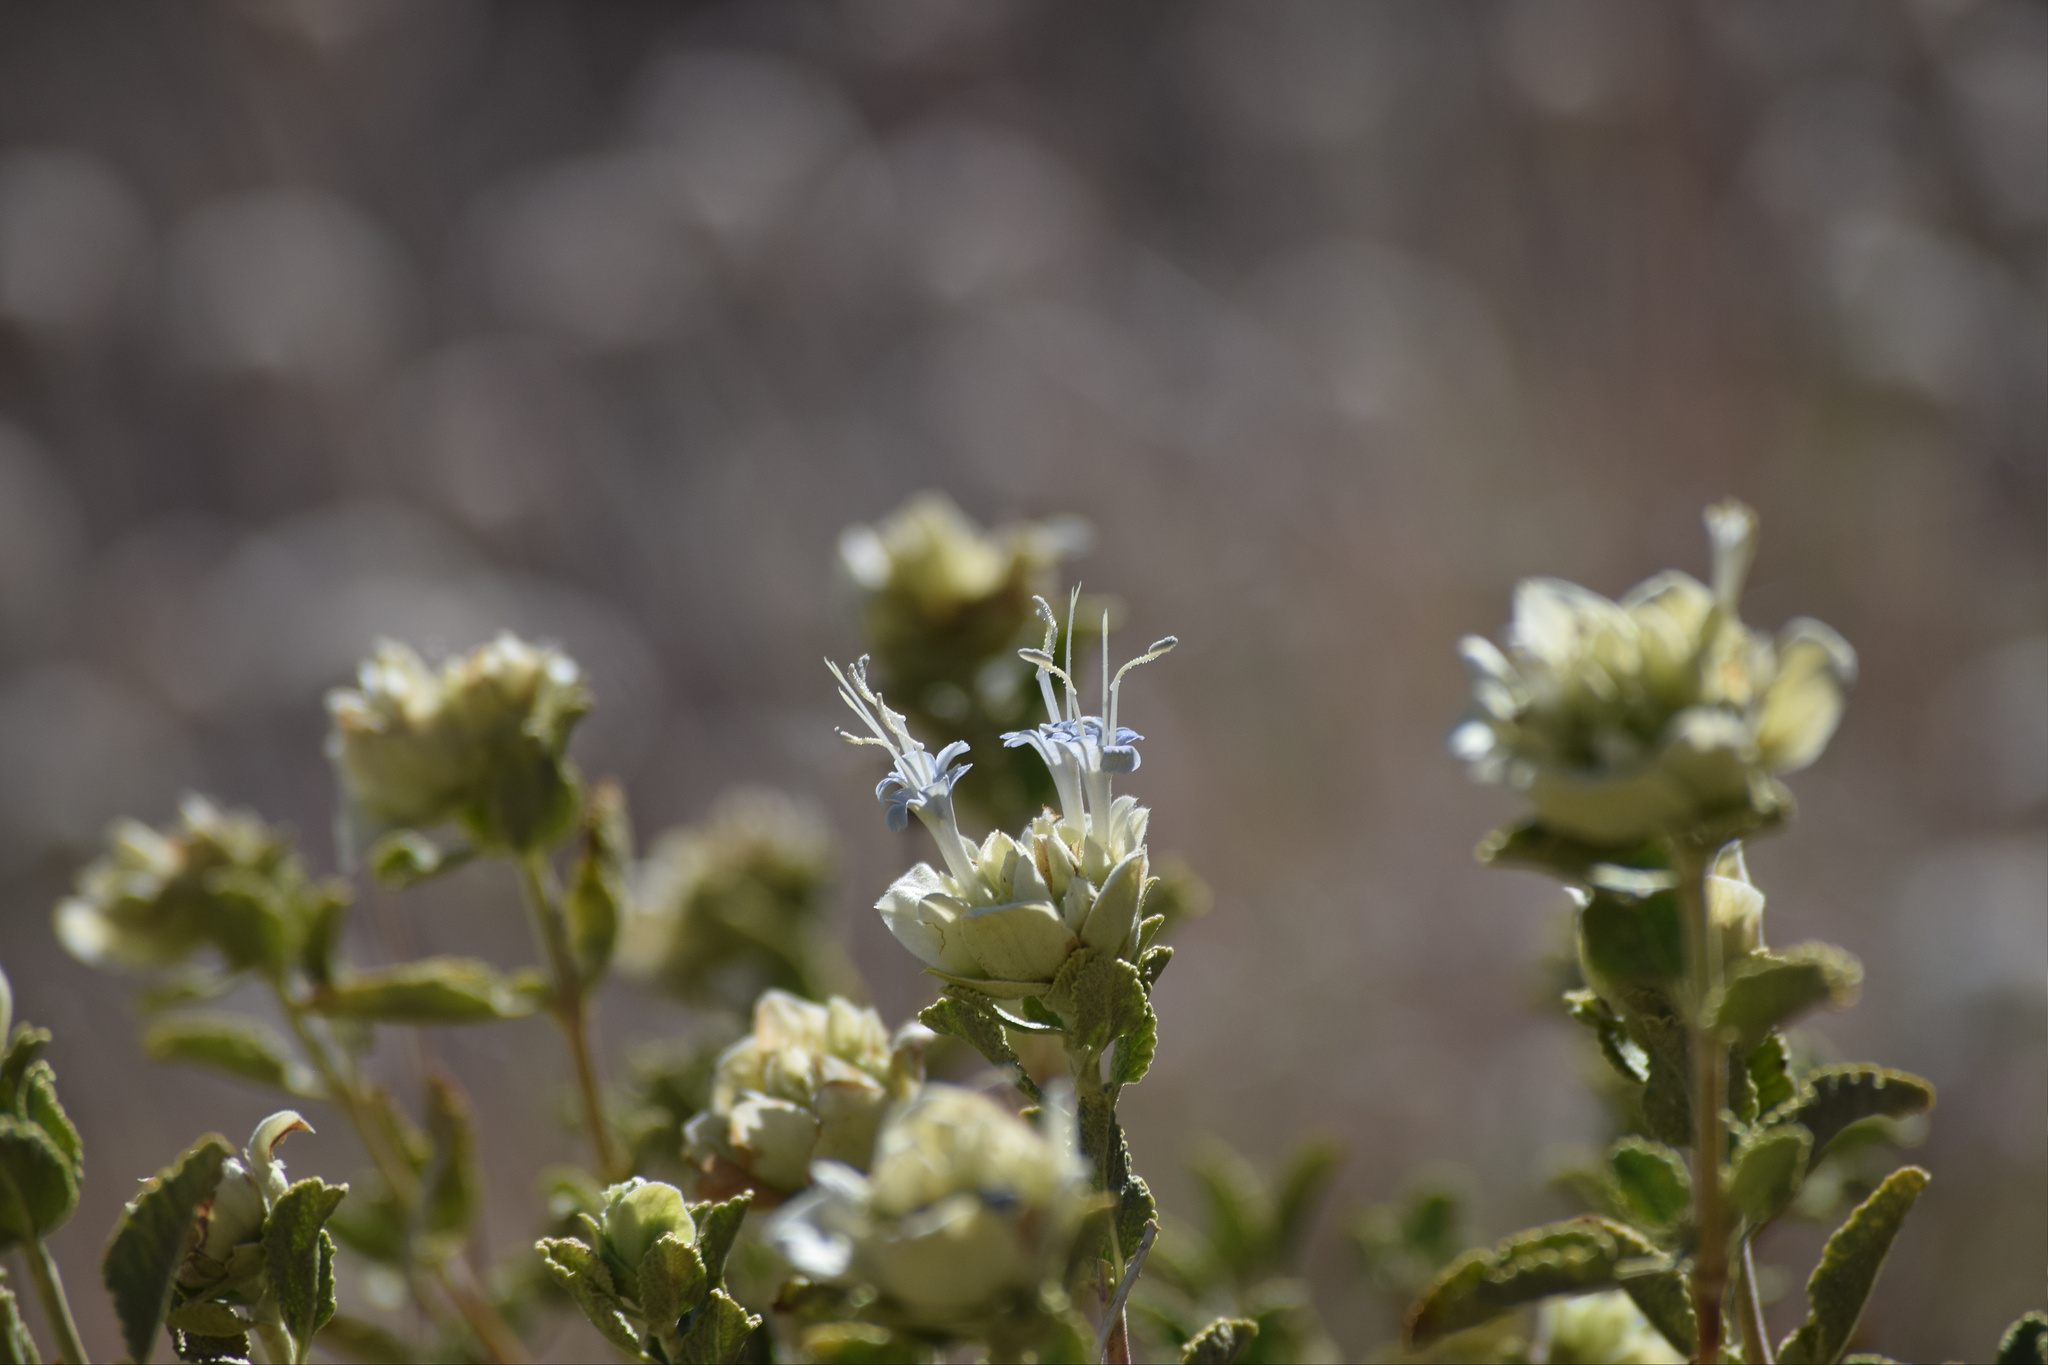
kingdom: Plantae
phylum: Tracheophyta
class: Magnoliopsida
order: Lamiales
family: Lamiaceae
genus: Salvia
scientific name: Salvia mohavensis
